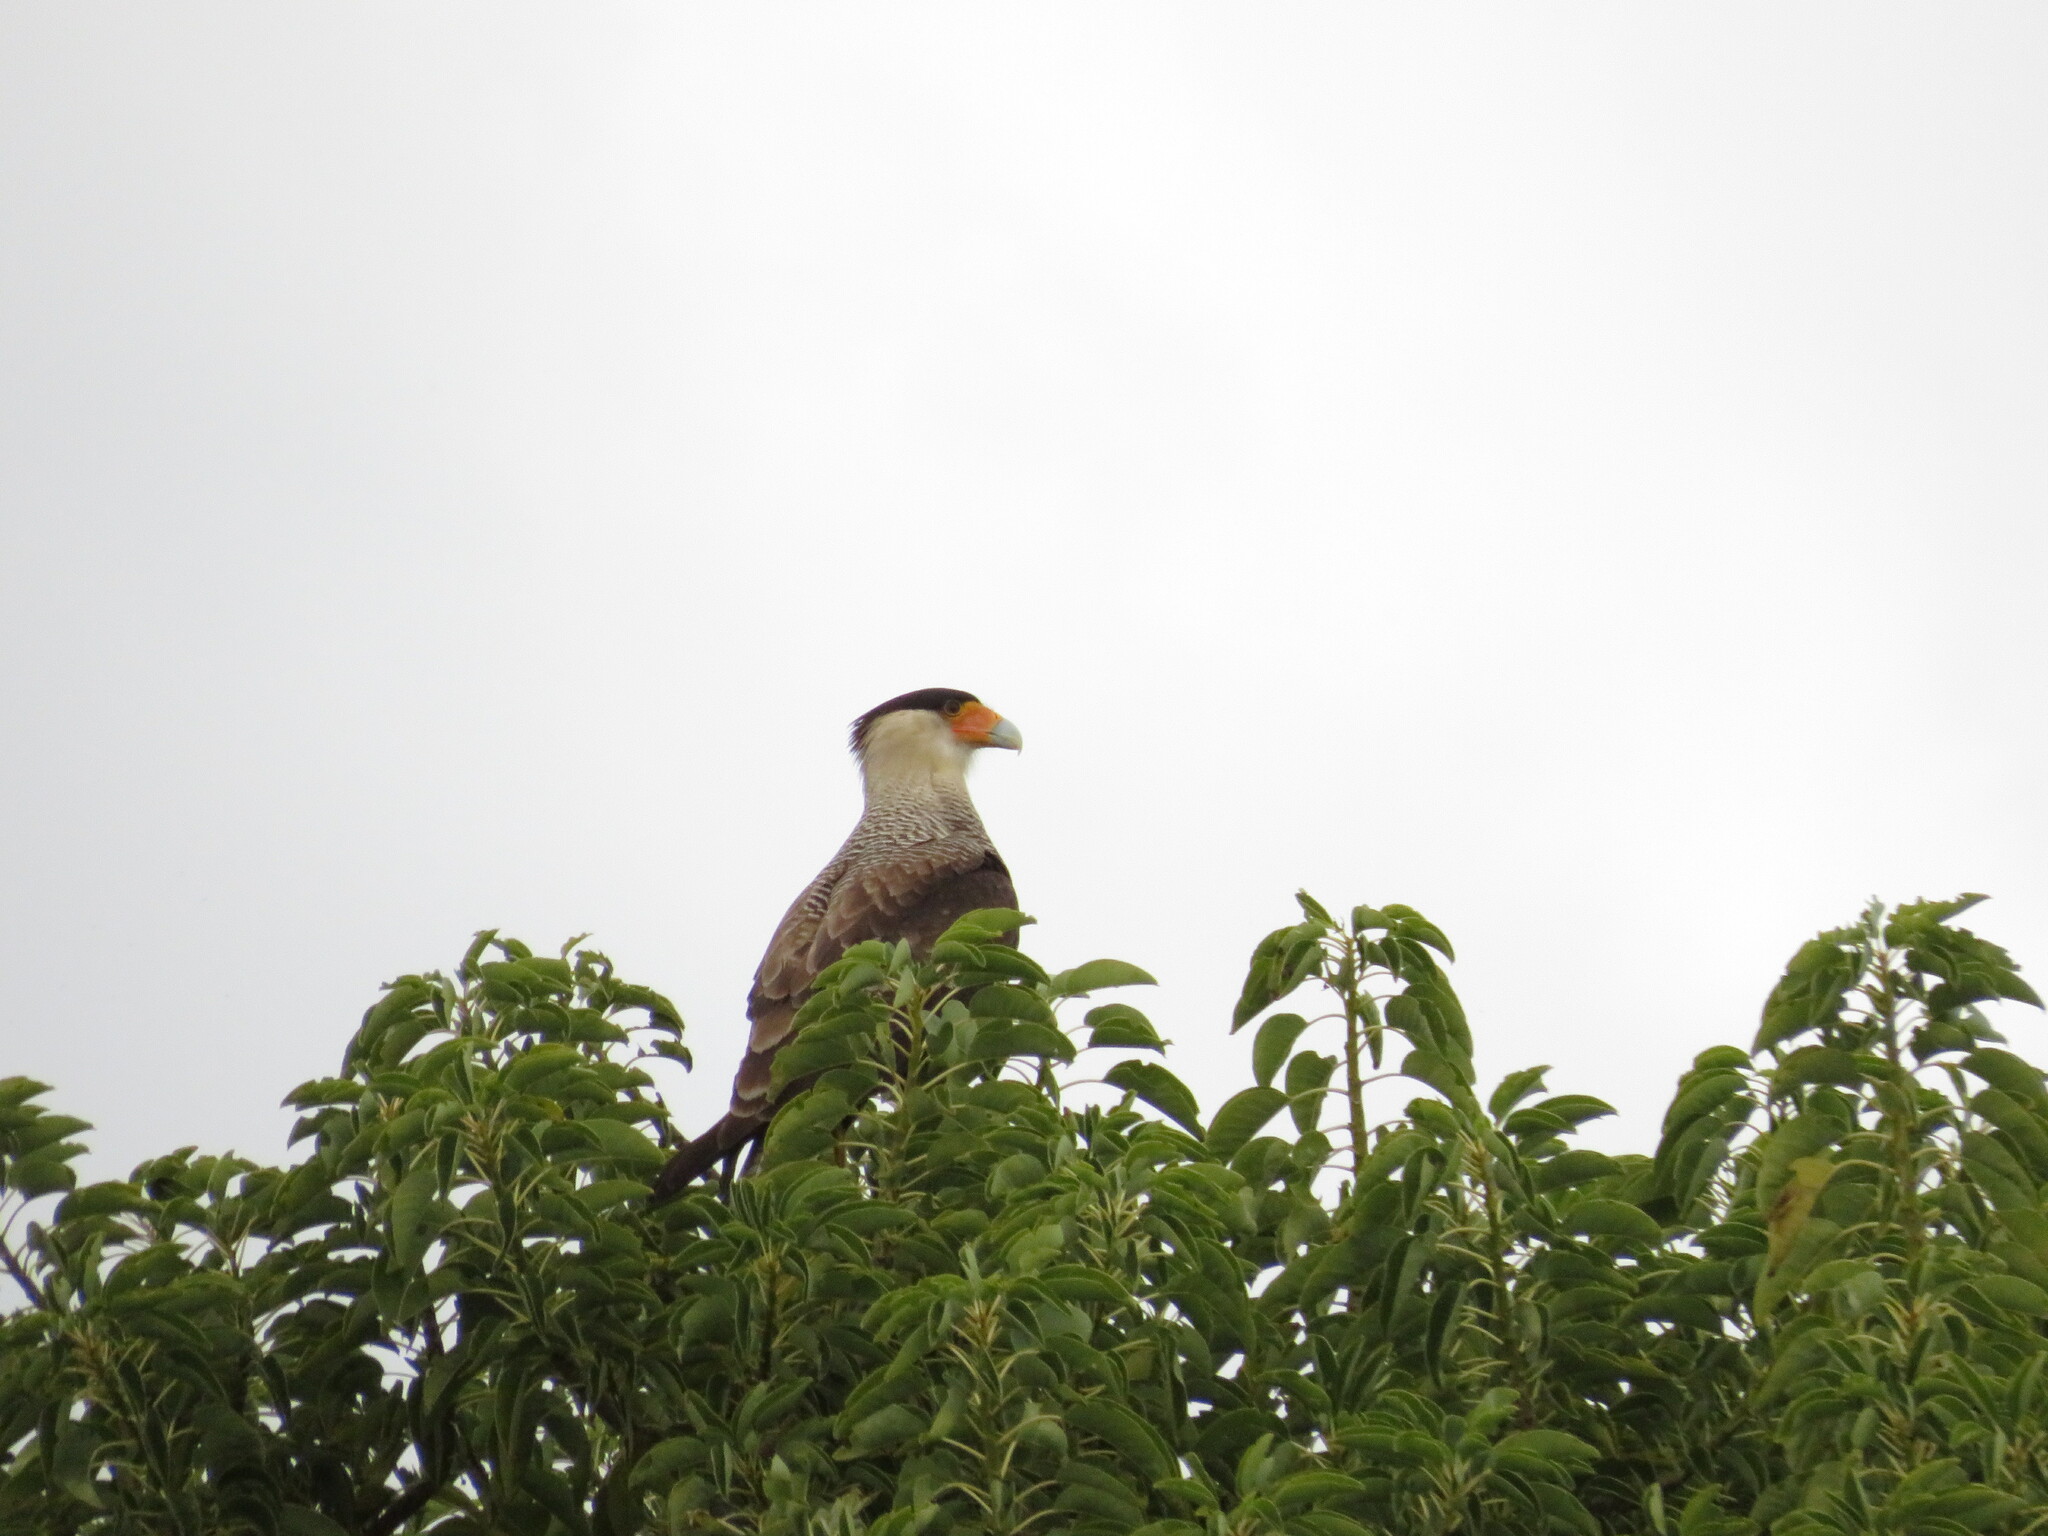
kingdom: Animalia
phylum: Chordata
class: Aves
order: Falconiformes
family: Falconidae
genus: Caracara
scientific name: Caracara plancus
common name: Southern caracara
